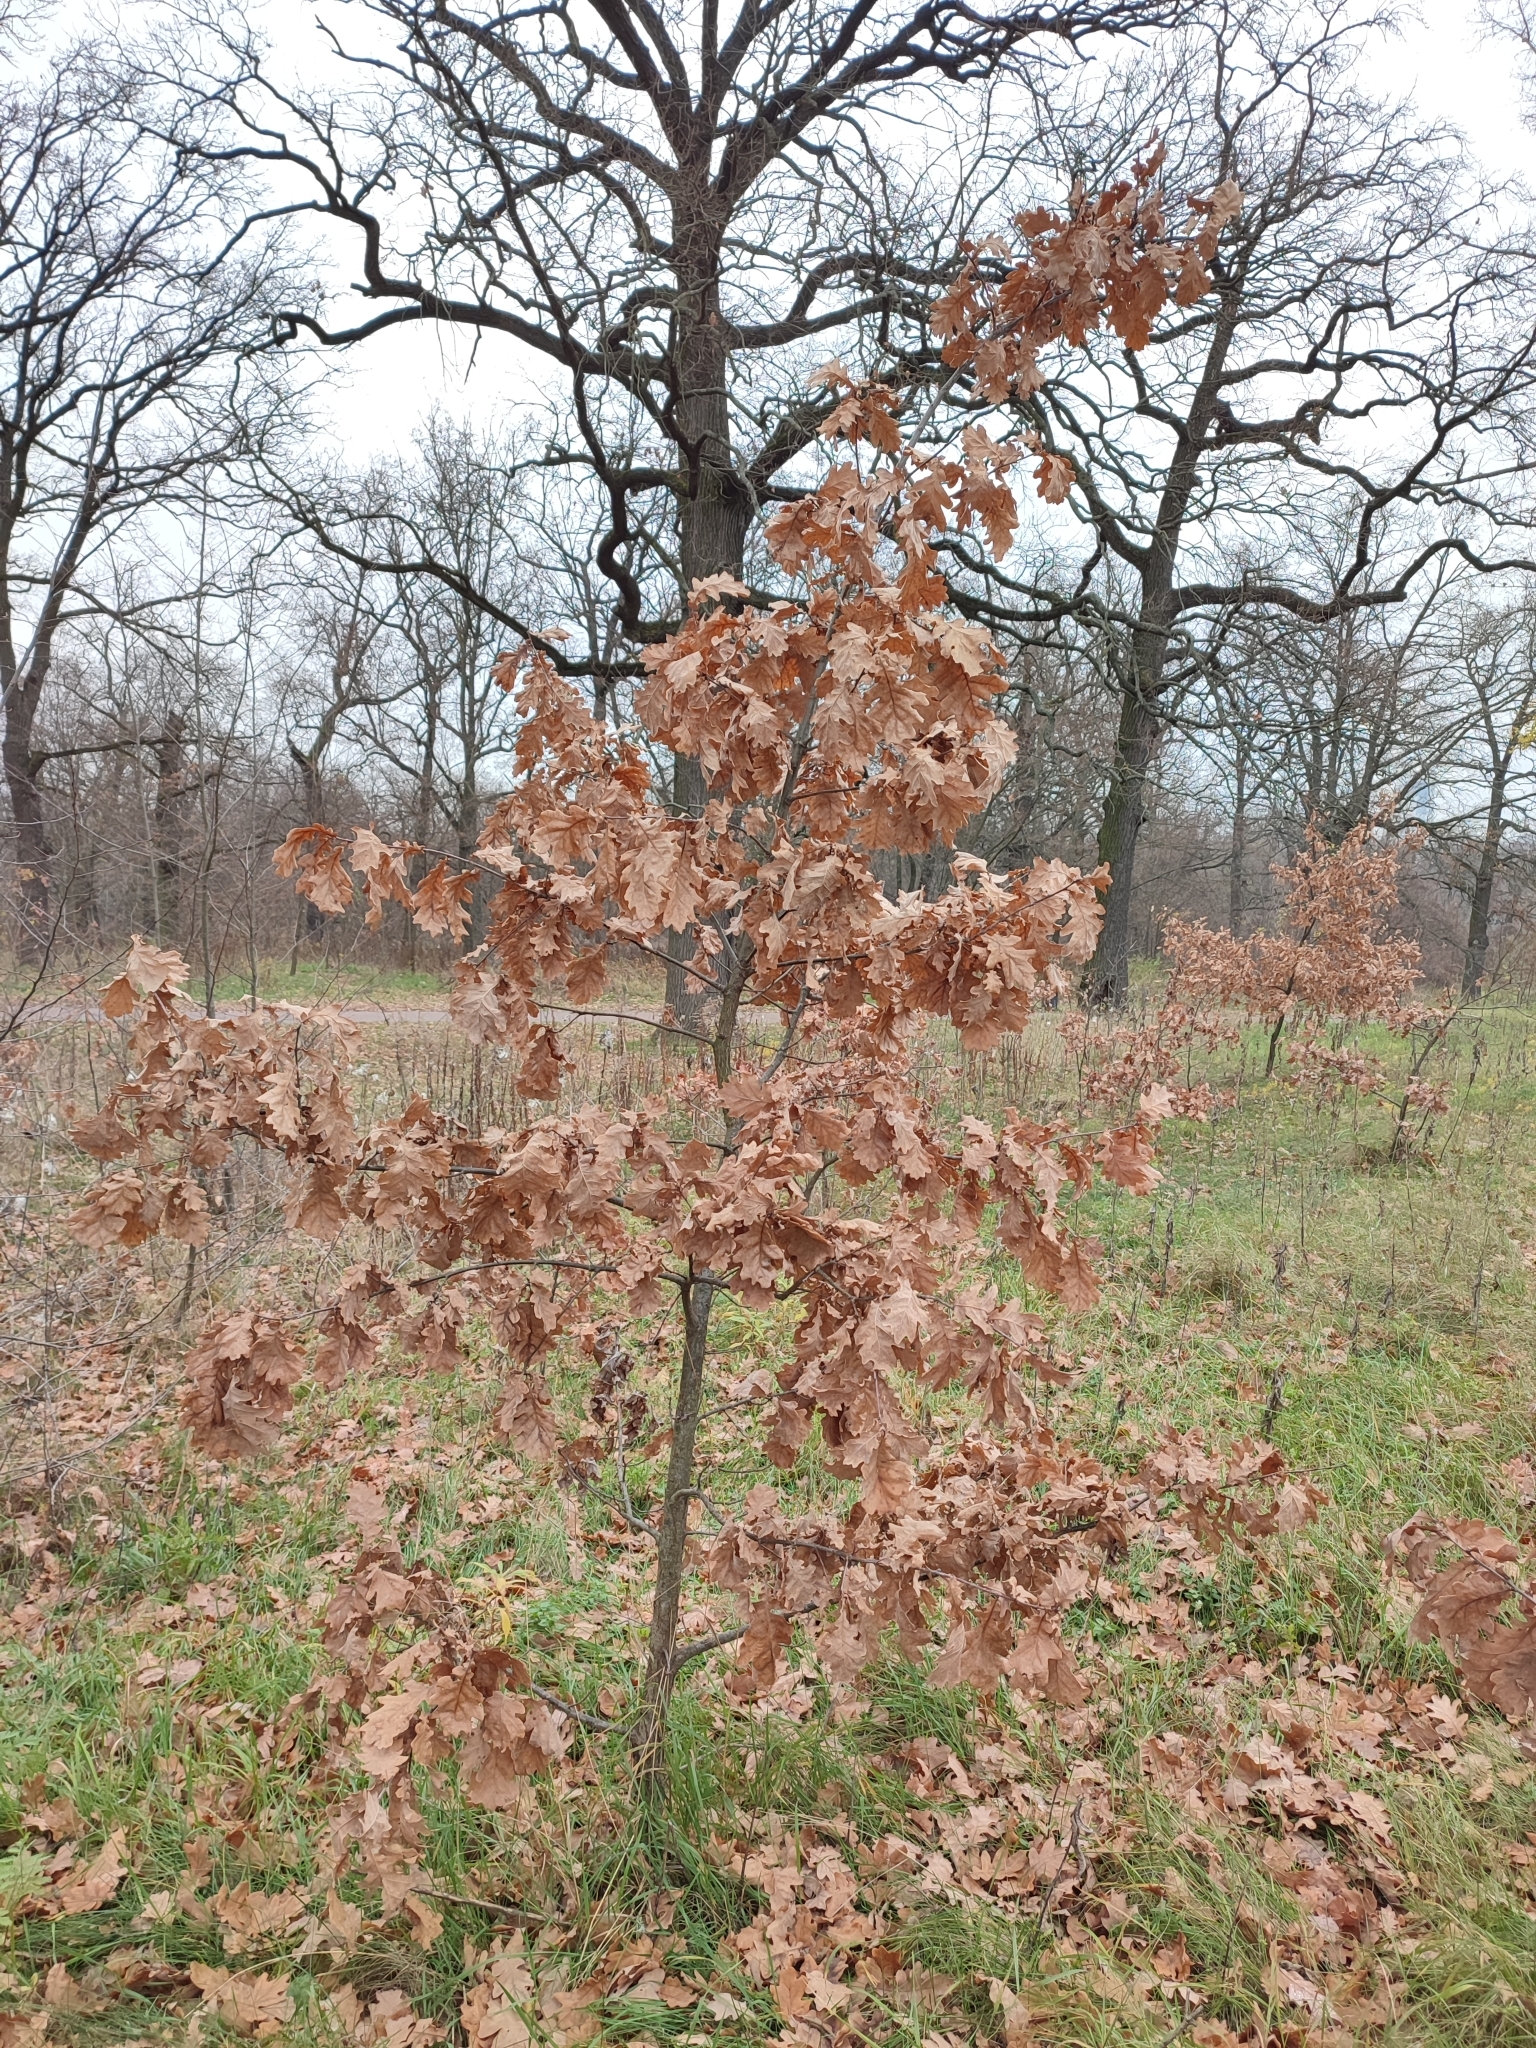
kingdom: Plantae
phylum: Tracheophyta
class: Magnoliopsida
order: Fagales
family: Fagaceae
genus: Quercus
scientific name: Quercus robur
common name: Pedunculate oak
